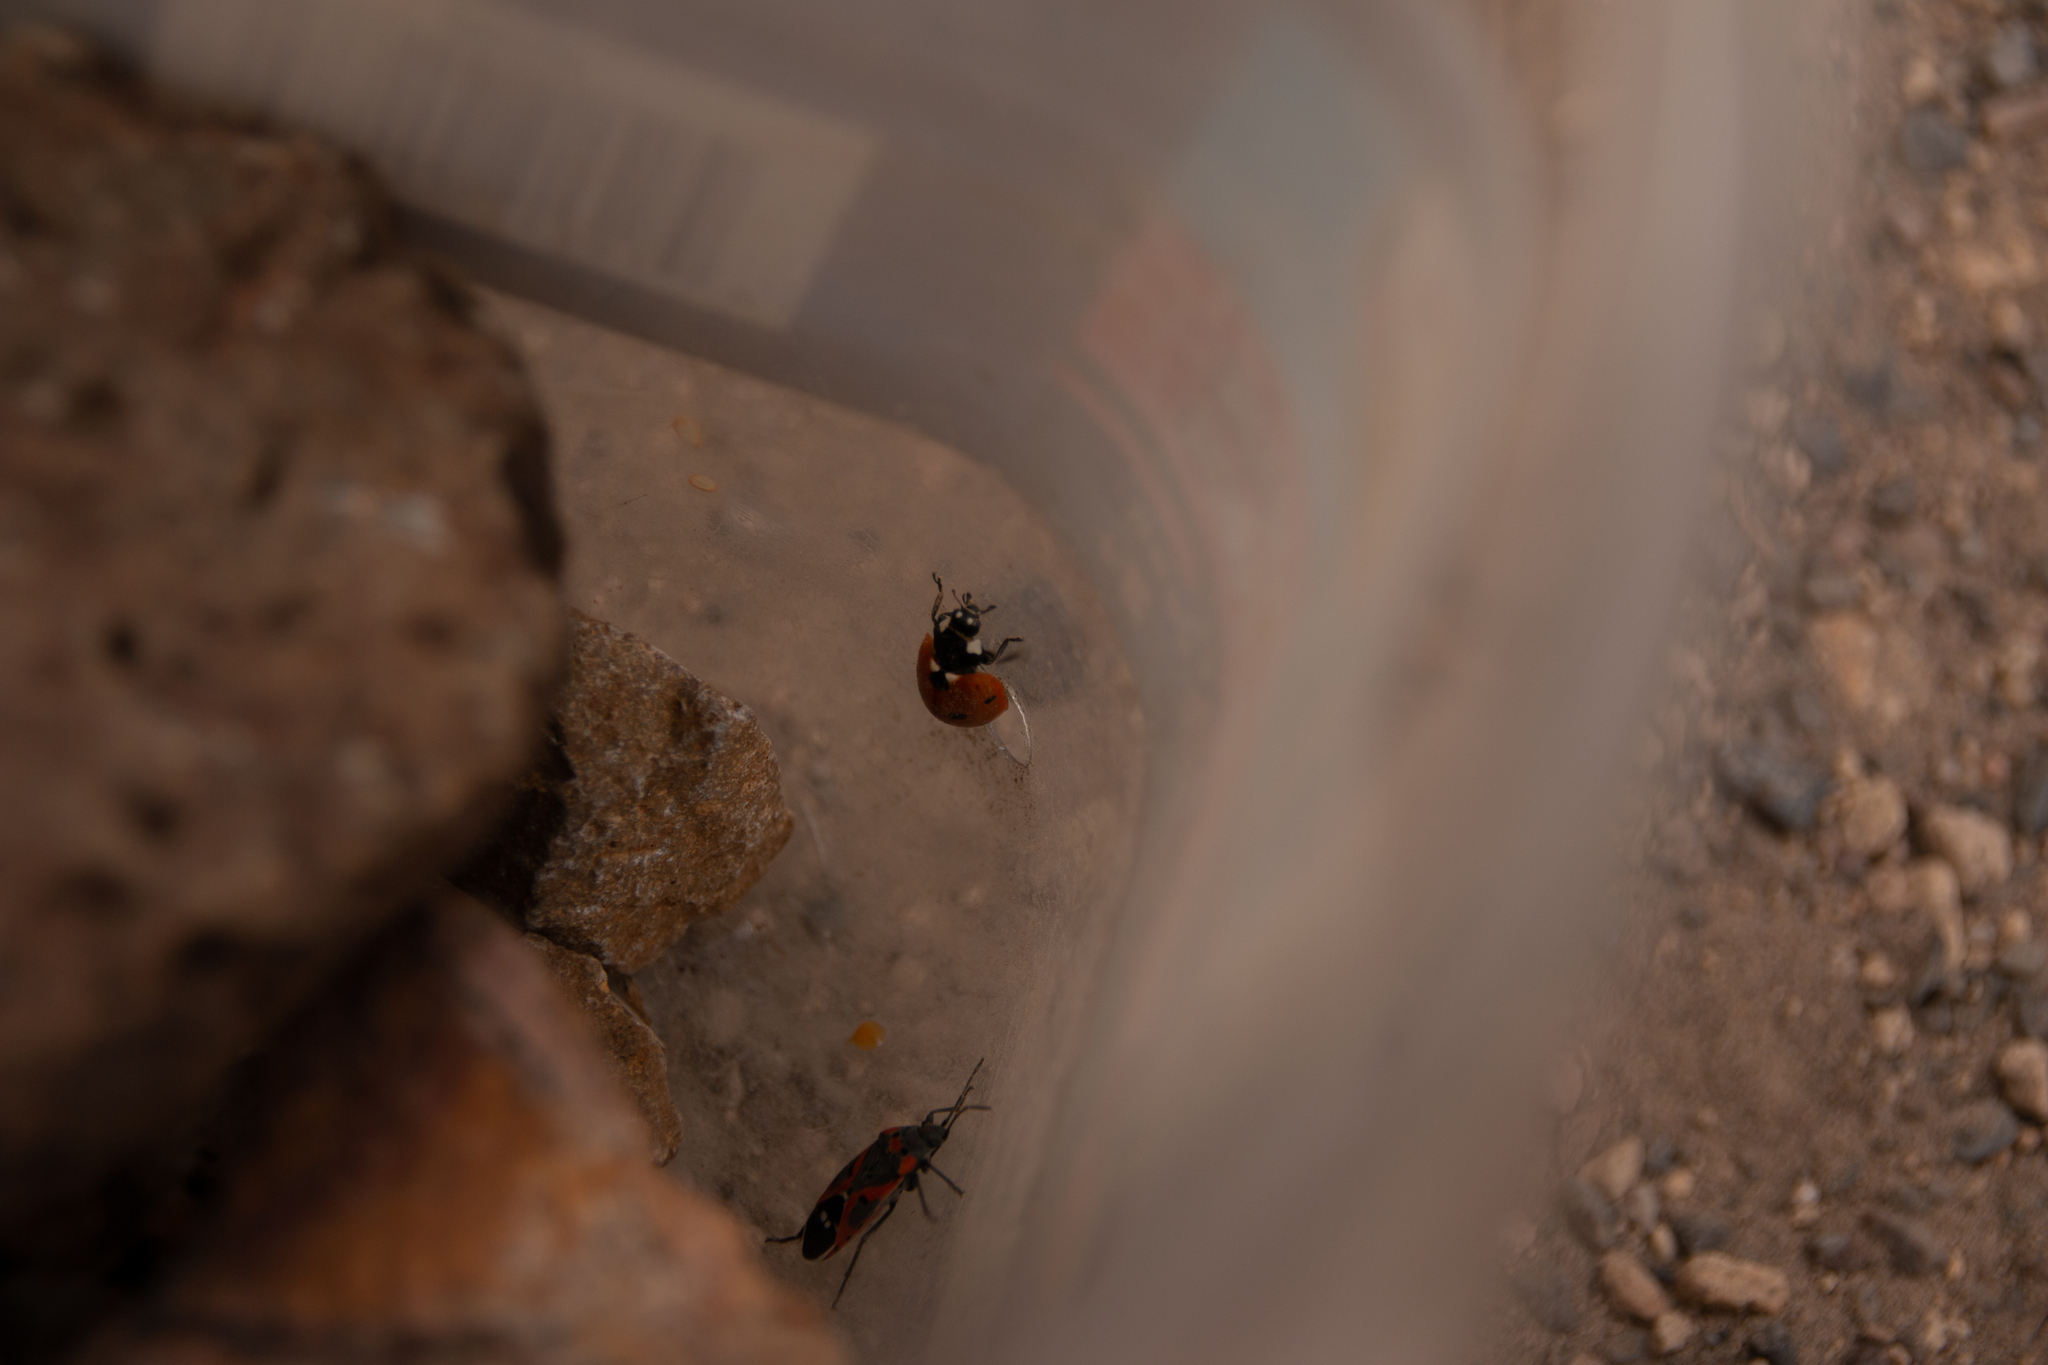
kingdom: Animalia
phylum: Arthropoda
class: Insecta
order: Hemiptera
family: Lygaeidae
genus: Lygaeus
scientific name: Lygaeus kalmii
